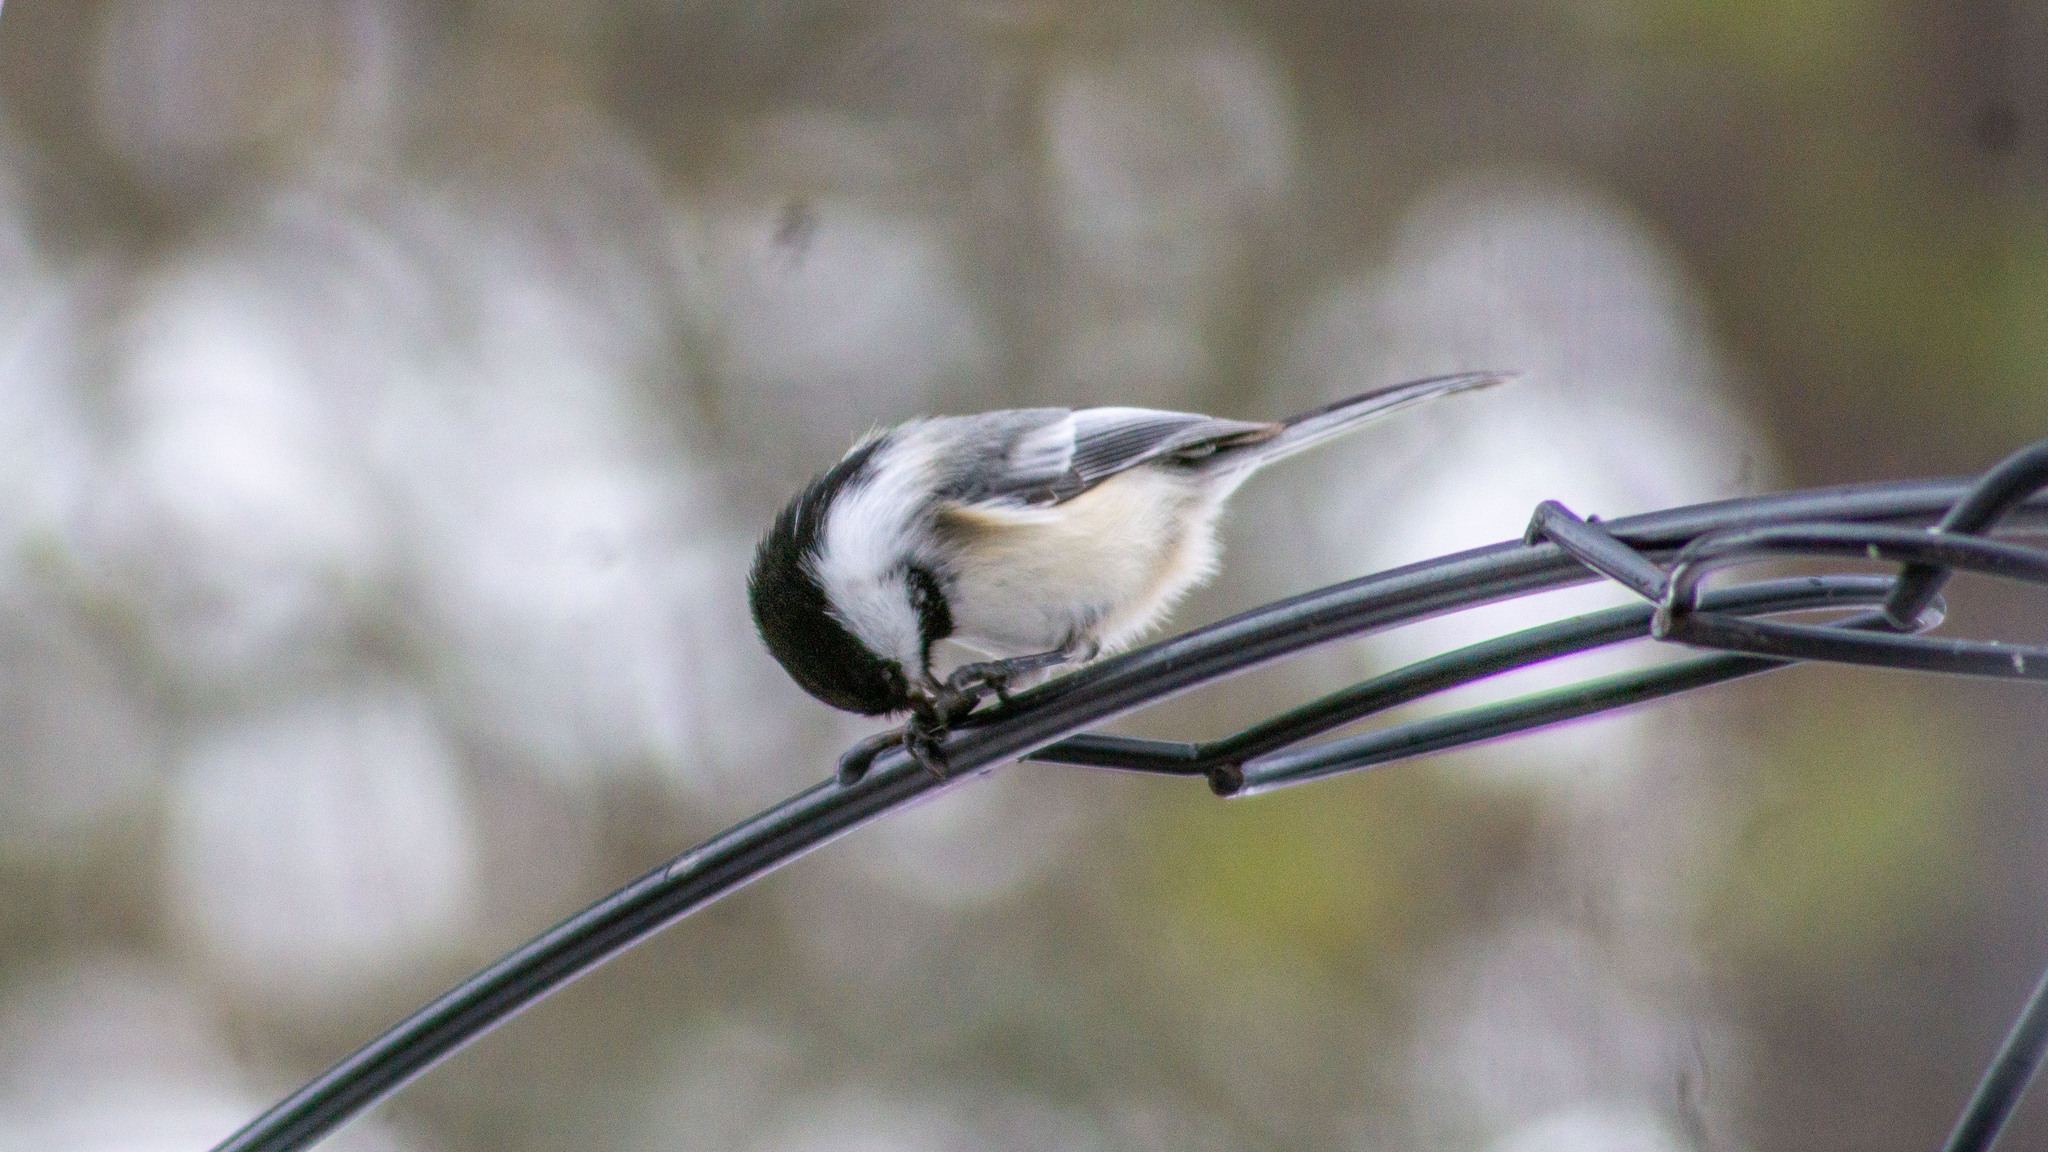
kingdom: Animalia
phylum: Chordata
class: Aves
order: Passeriformes
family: Paridae
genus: Poecile
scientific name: Poecile atricapillus
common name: Black-capped chickadee
